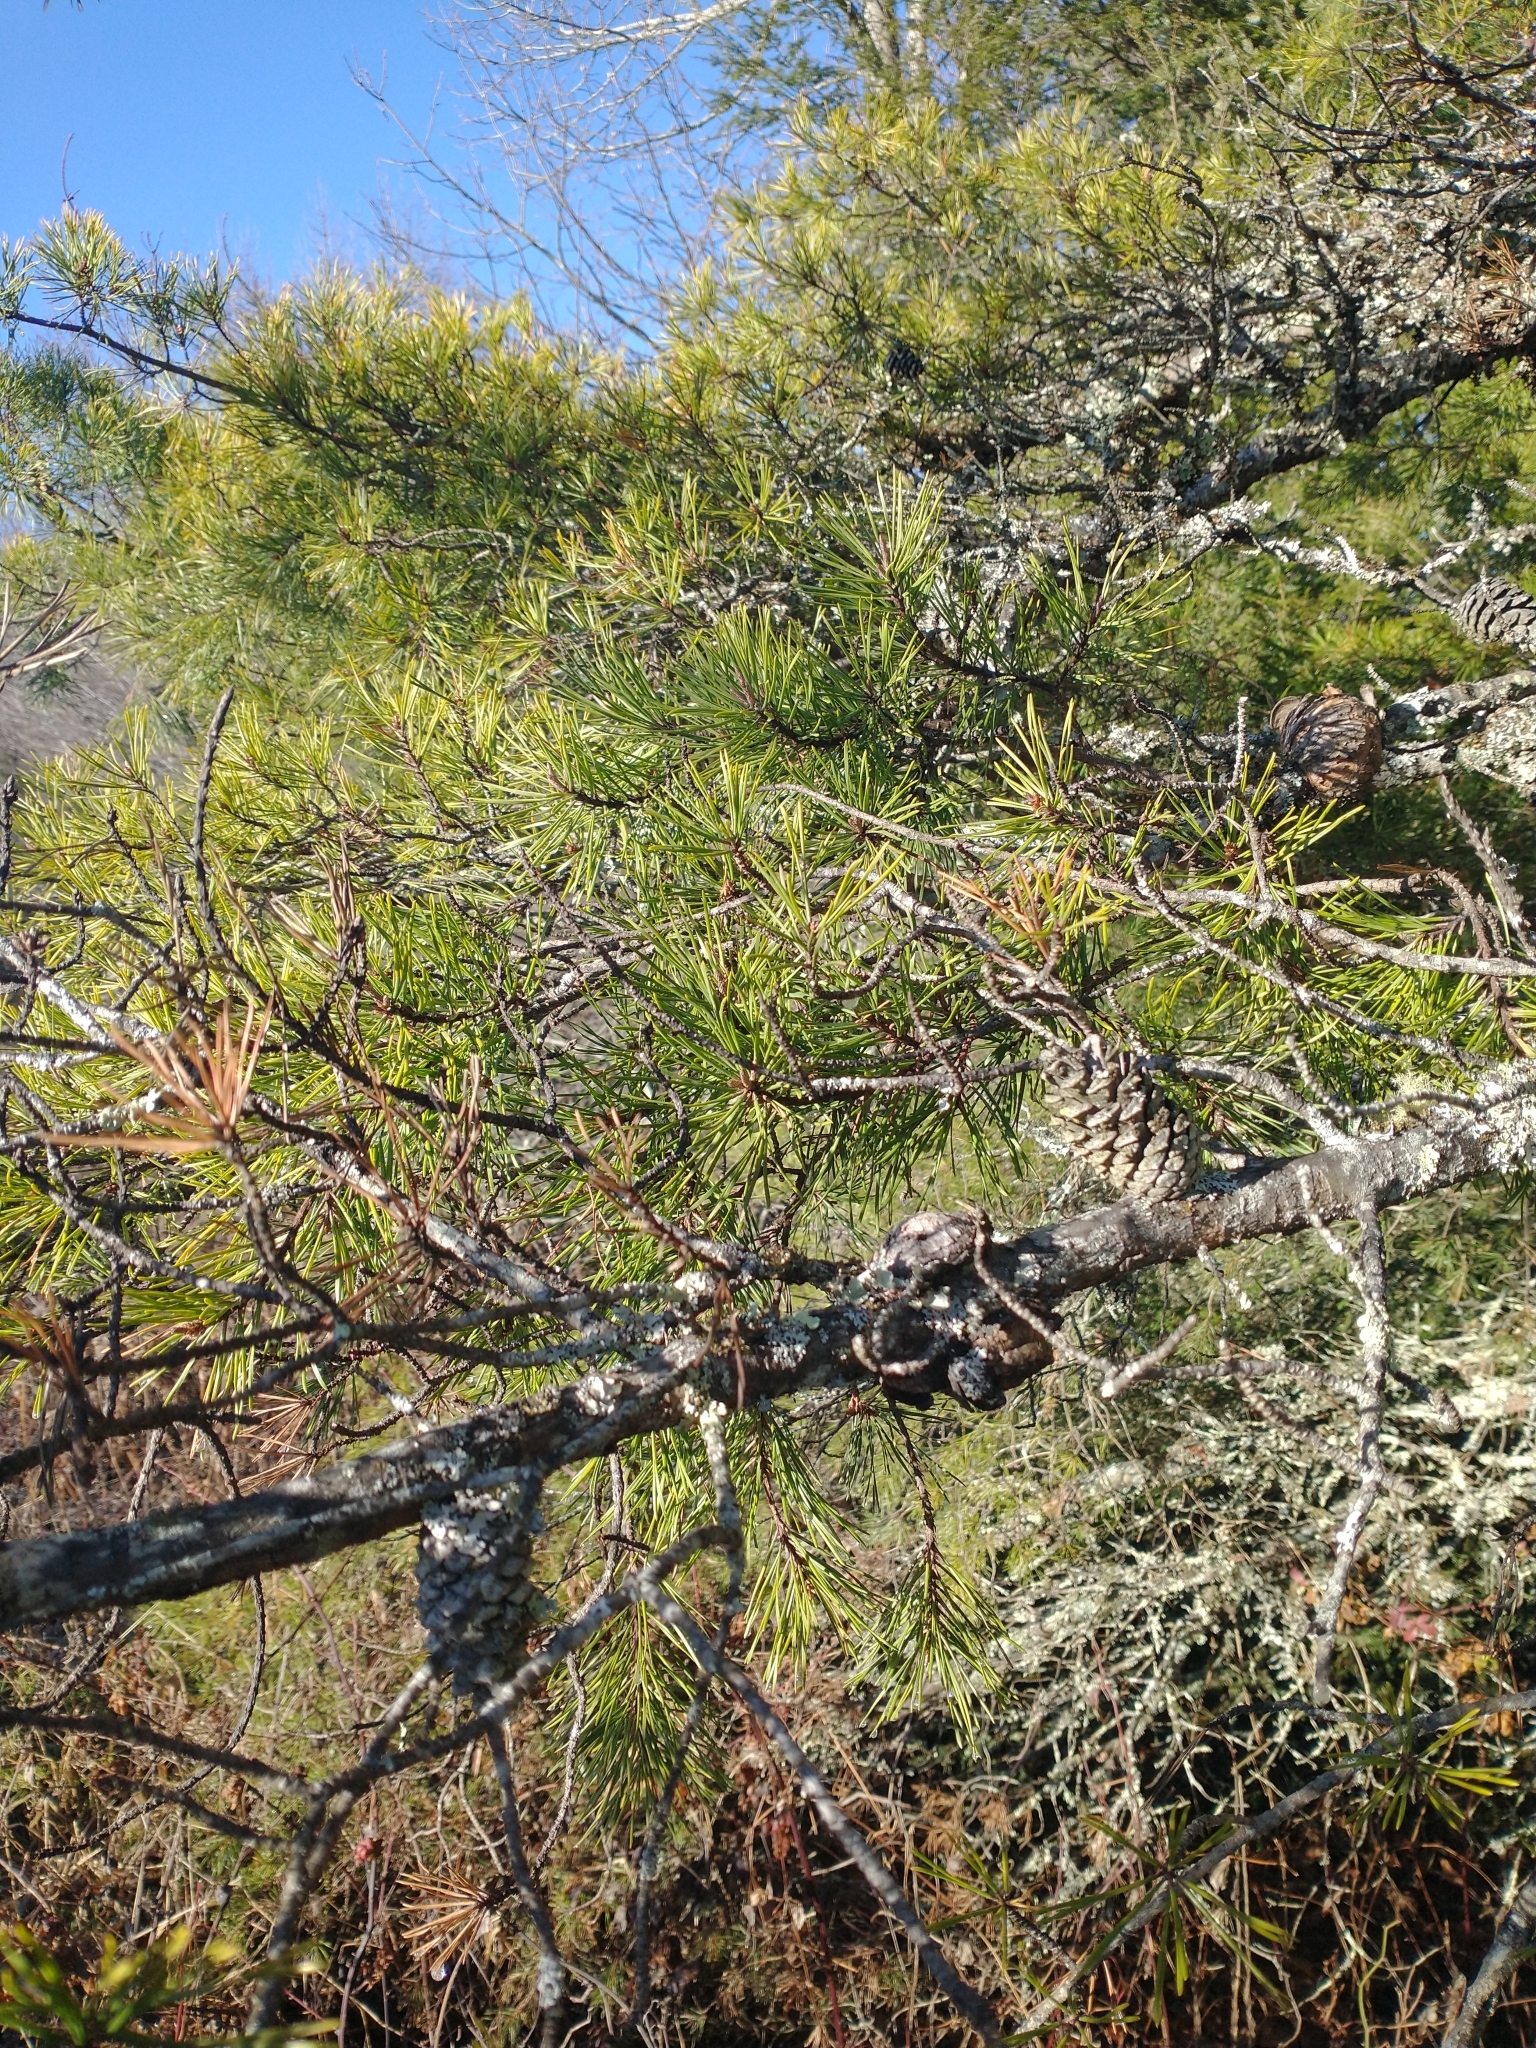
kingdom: Plantae
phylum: Tracheophyta
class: Pinopsida
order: Pinales
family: Pinaceae
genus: Pinus
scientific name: Pinus virginiana
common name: Scrub pine
